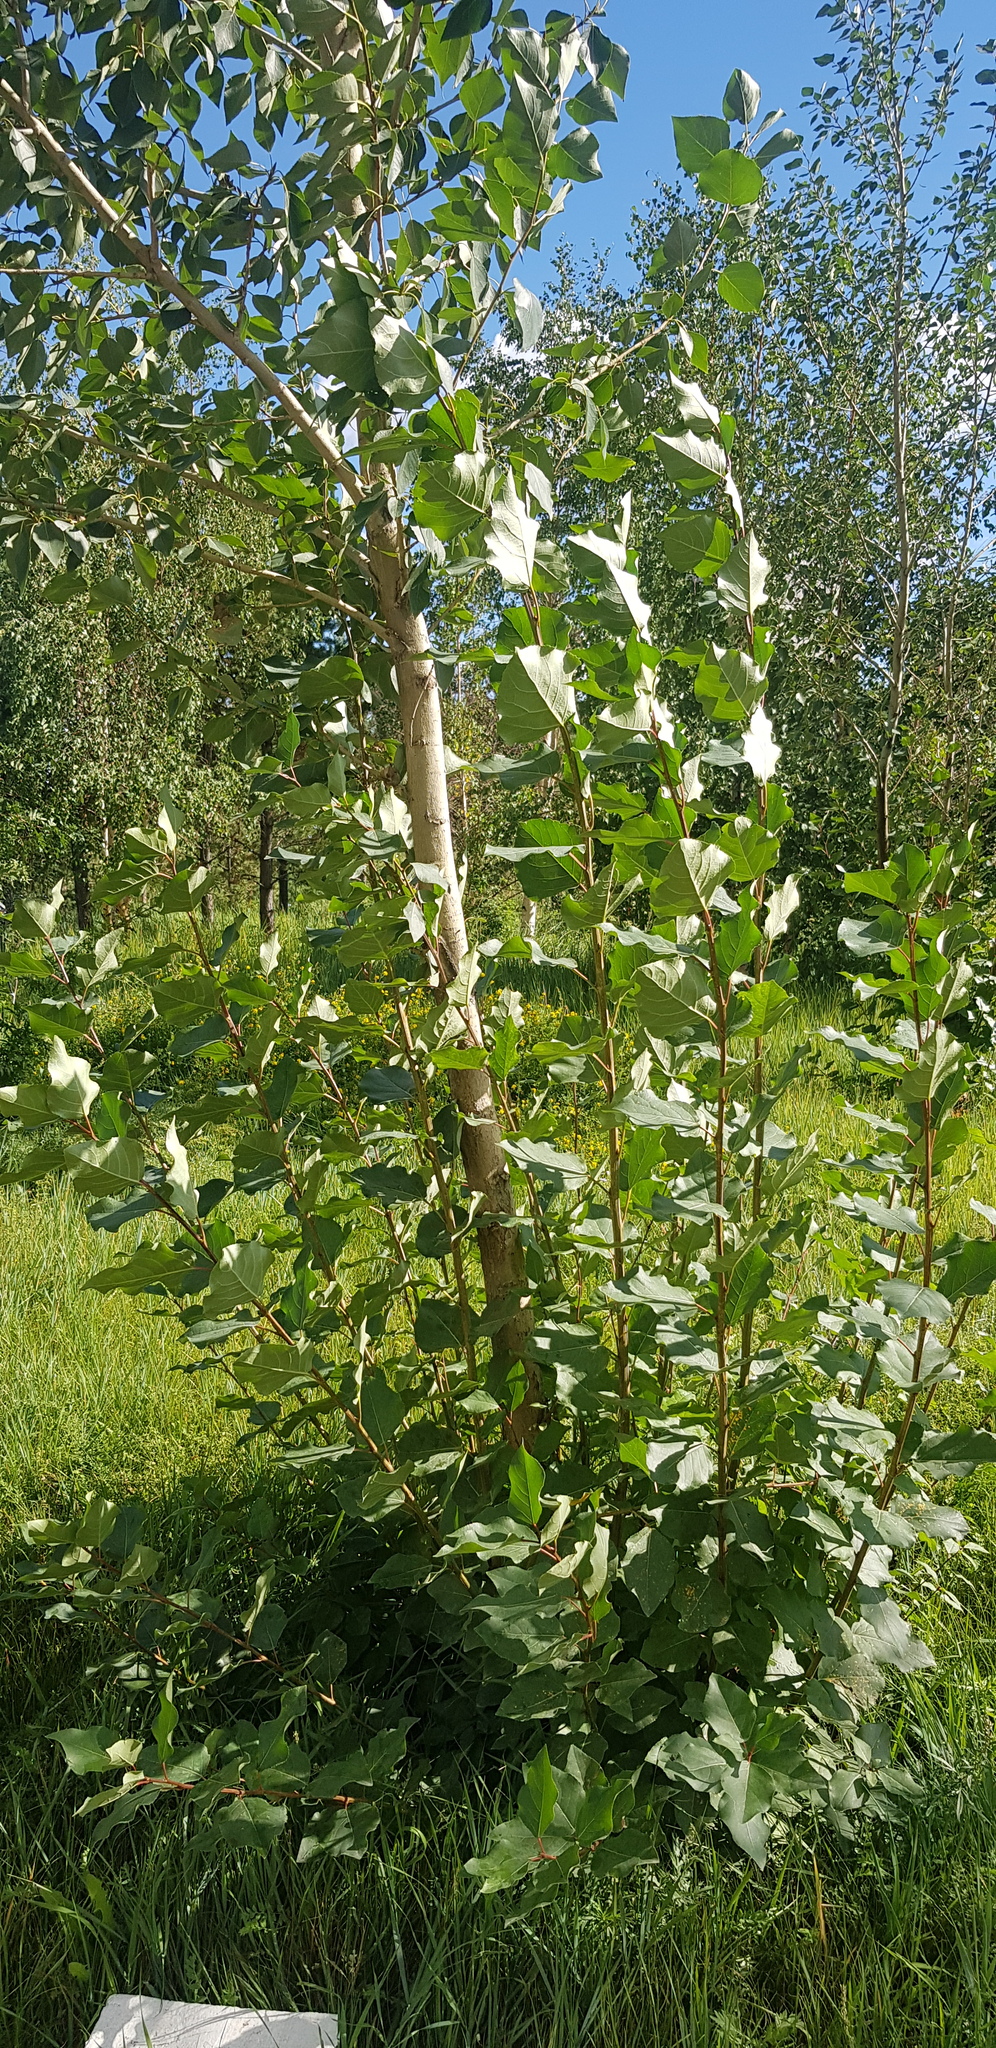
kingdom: Plantae
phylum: Tracheophyta
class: Magnoliopsida
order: Malpighiales
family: Salicaceae
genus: Populus
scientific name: Populus tremula
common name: European aspen
